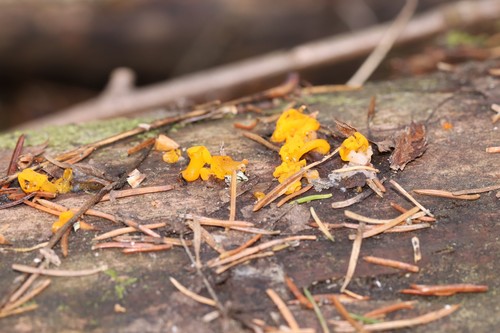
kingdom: Fungi
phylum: Basidiomycota
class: Dacrymycetes
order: Dacrymycetales
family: Dacrymycetaceae
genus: Dacrymyces
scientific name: Dacrymyces chrysospermus
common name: Orange jelly spot
